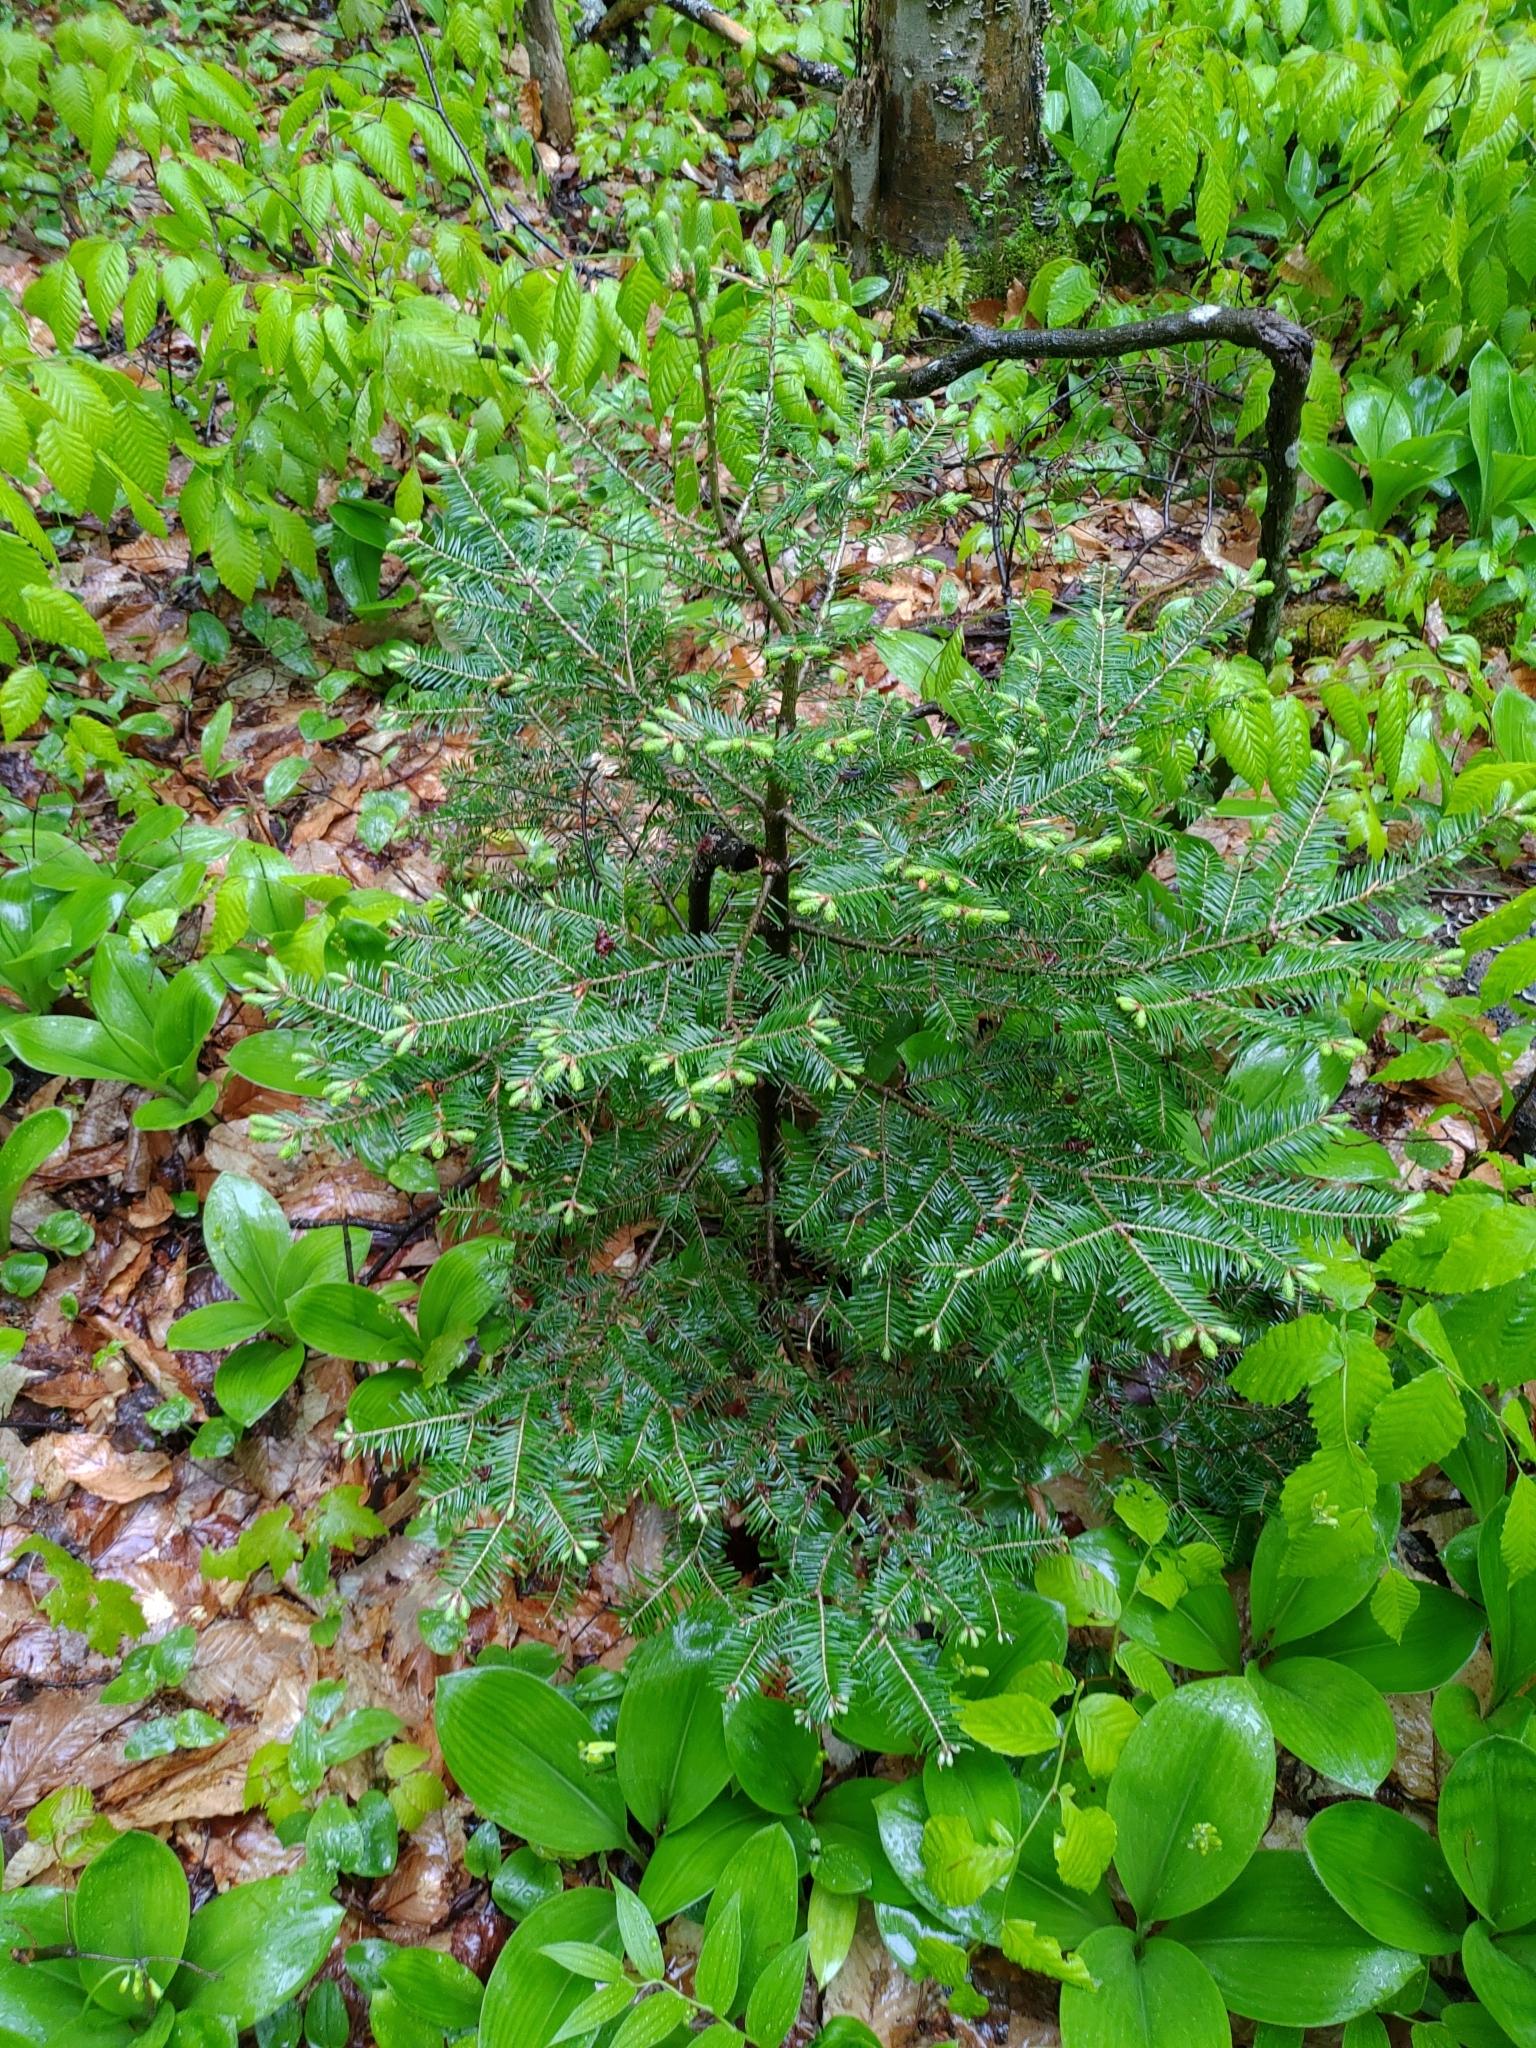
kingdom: Plantae
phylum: Tracheophyta
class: Pinopsida
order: Pinales
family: Pinaceae
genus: Abies
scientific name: Abies balsamea
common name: Balsam fir
